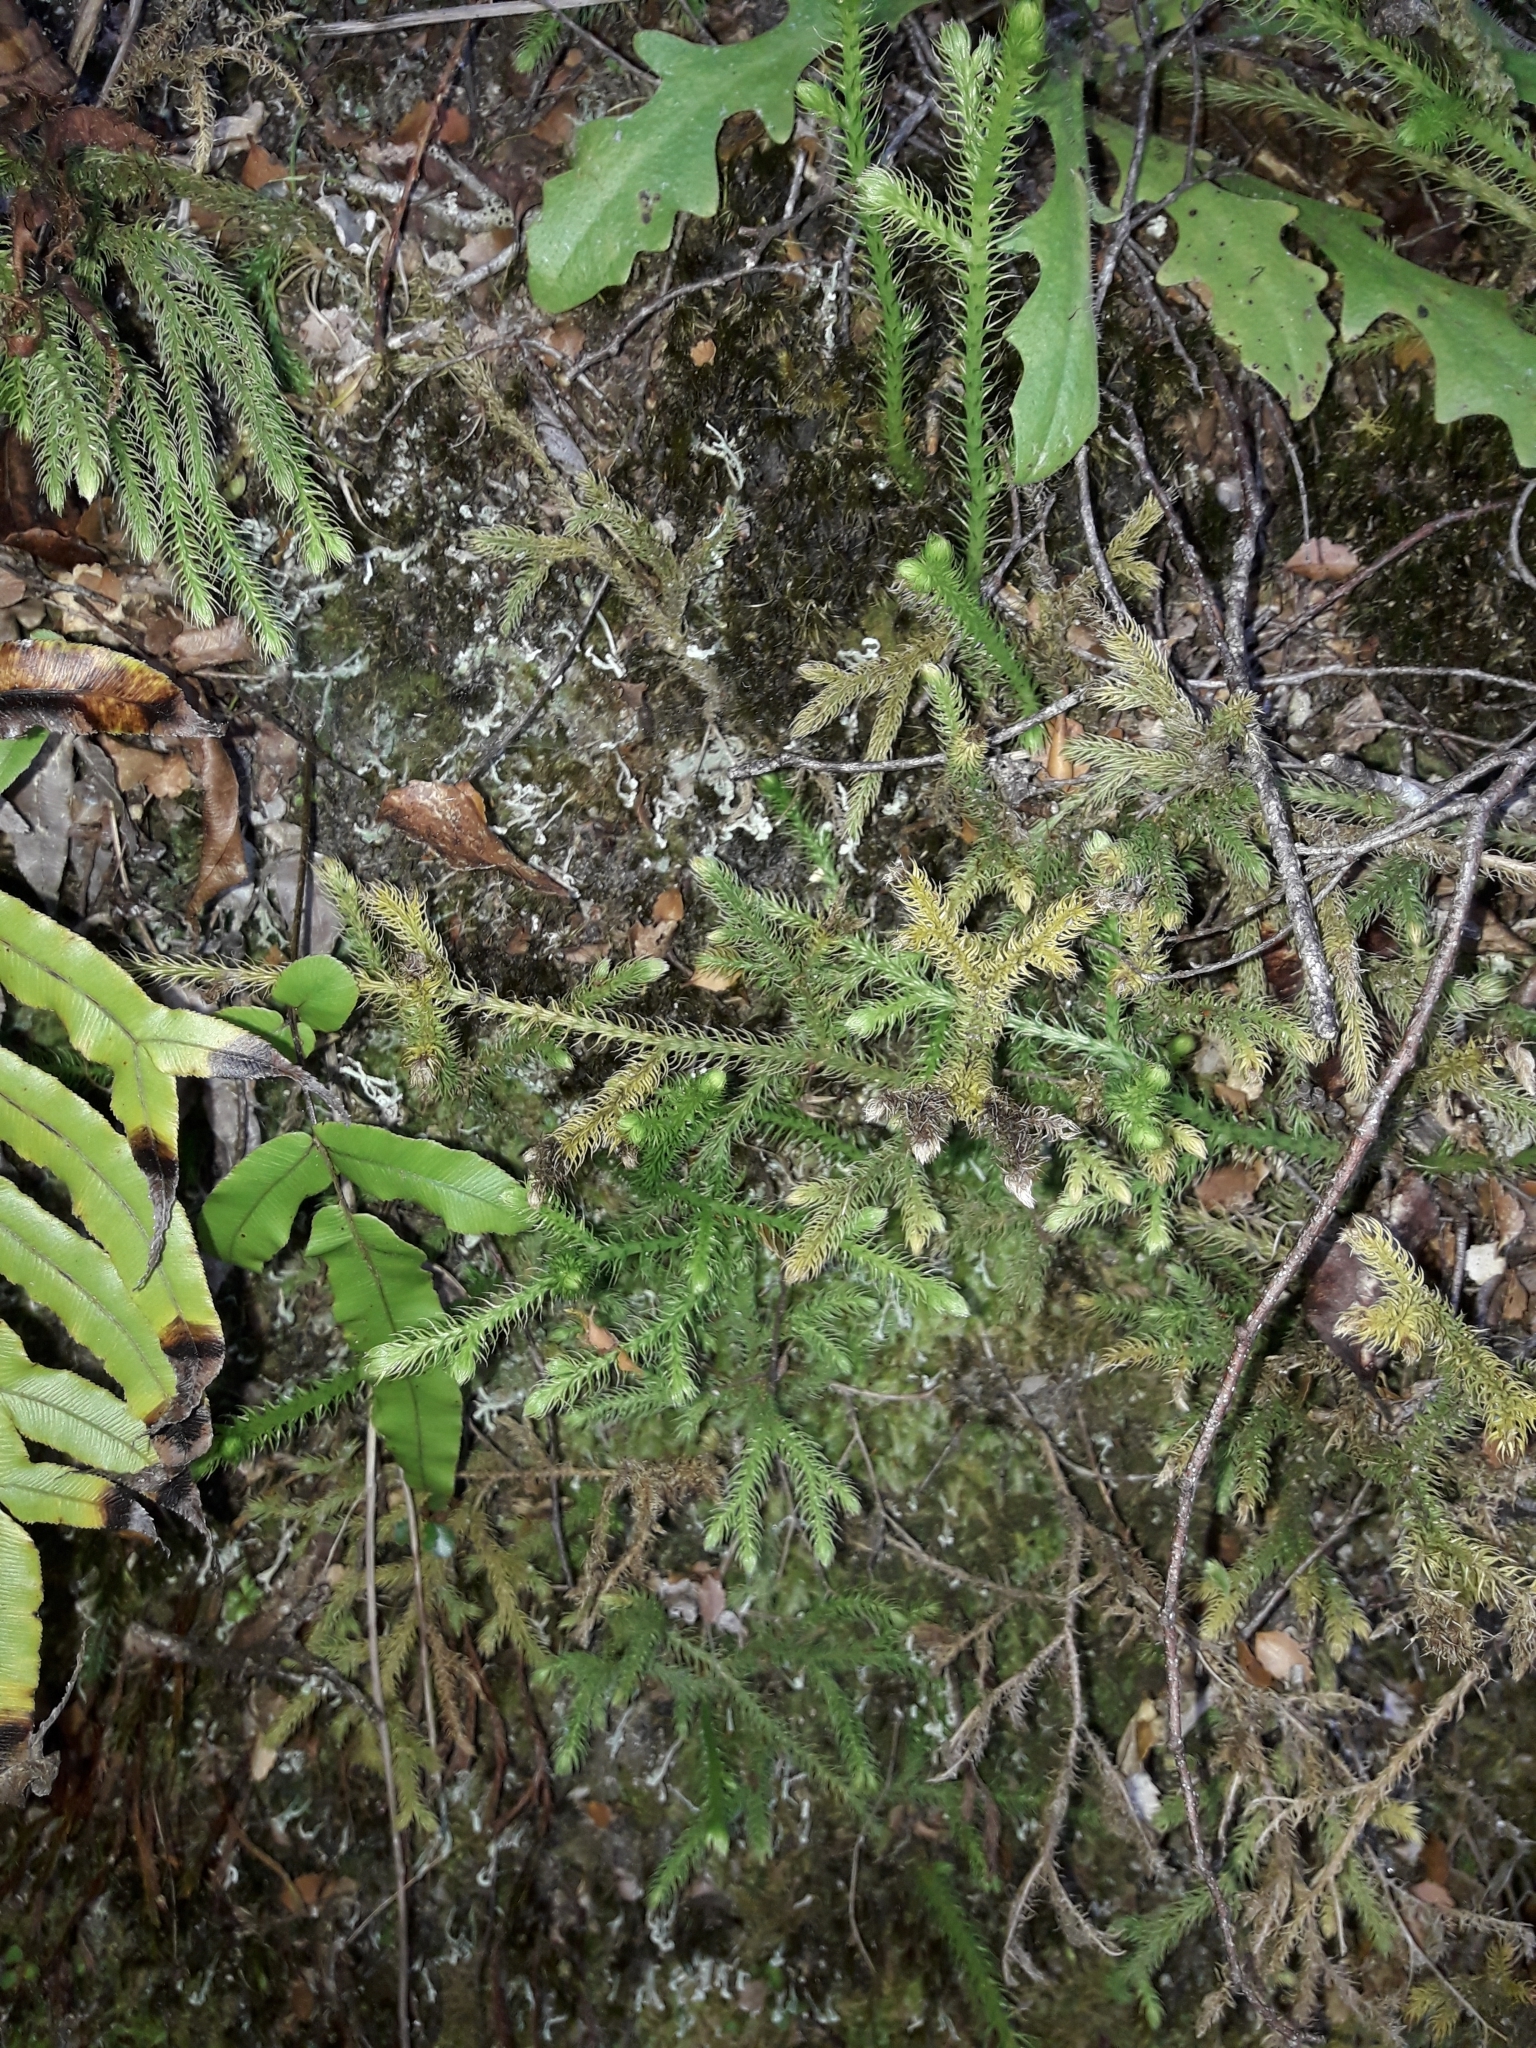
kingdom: Plantae
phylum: Tracheophyta
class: Lycopodiopsida
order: Lycopodiales
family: Lycopodiaceae
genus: Palhinhaea
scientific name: Palhinhaea cernua
